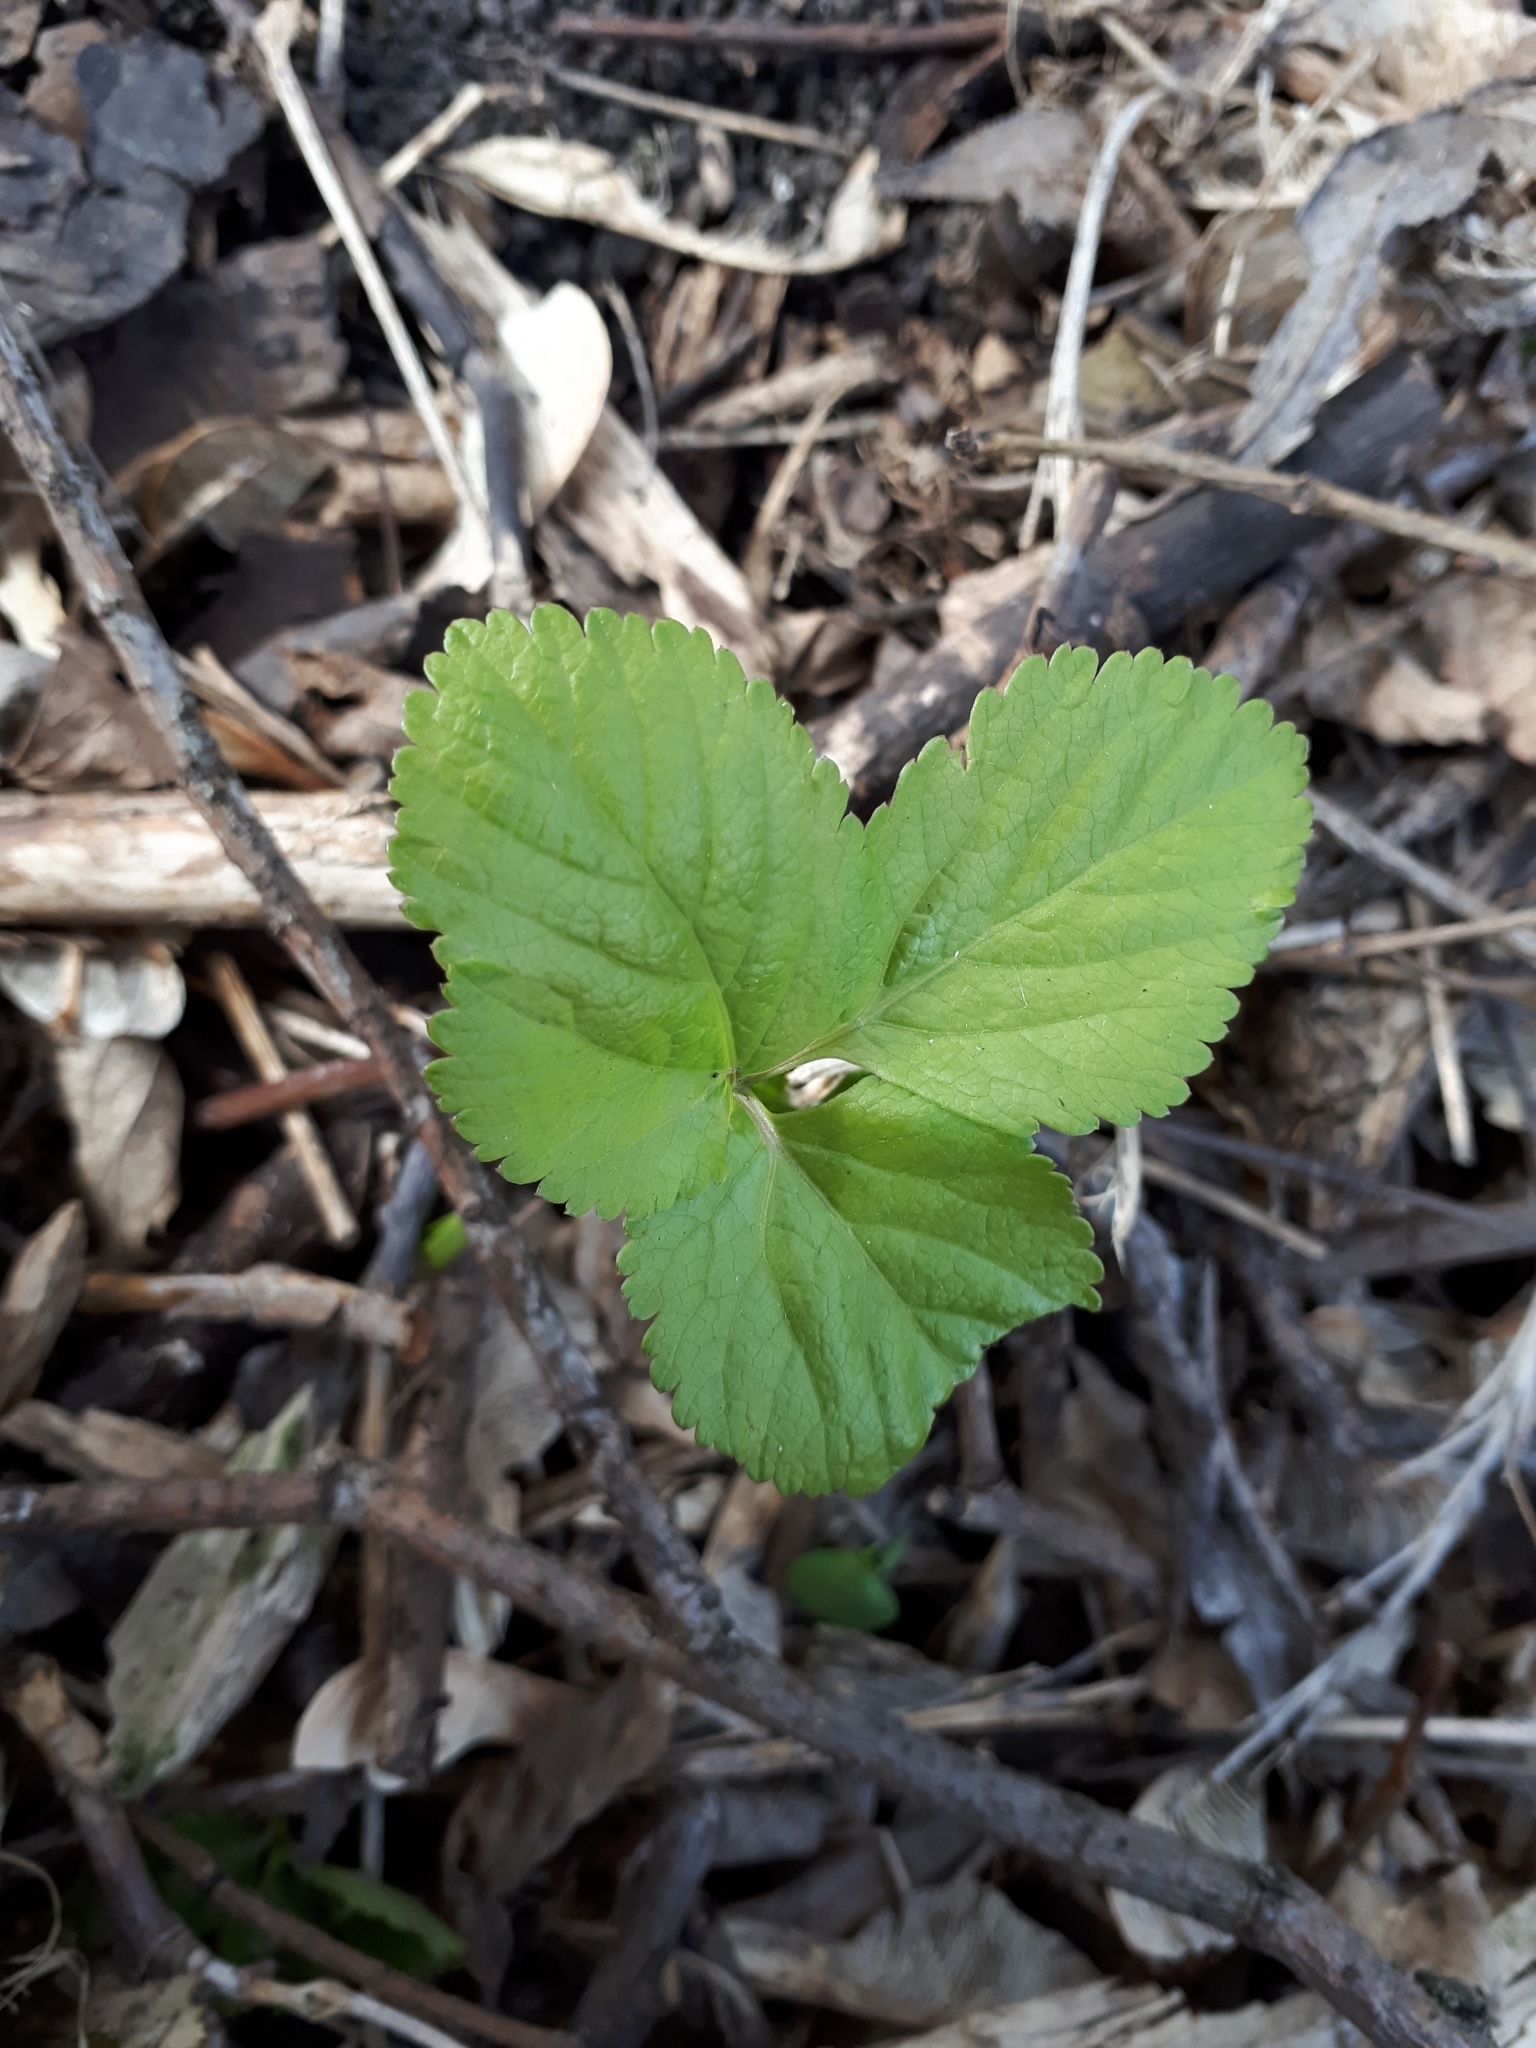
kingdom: Plantae
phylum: Tracheophyta
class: Magnoliopsida
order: Apiales
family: Apiaceae
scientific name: Apiaceae
